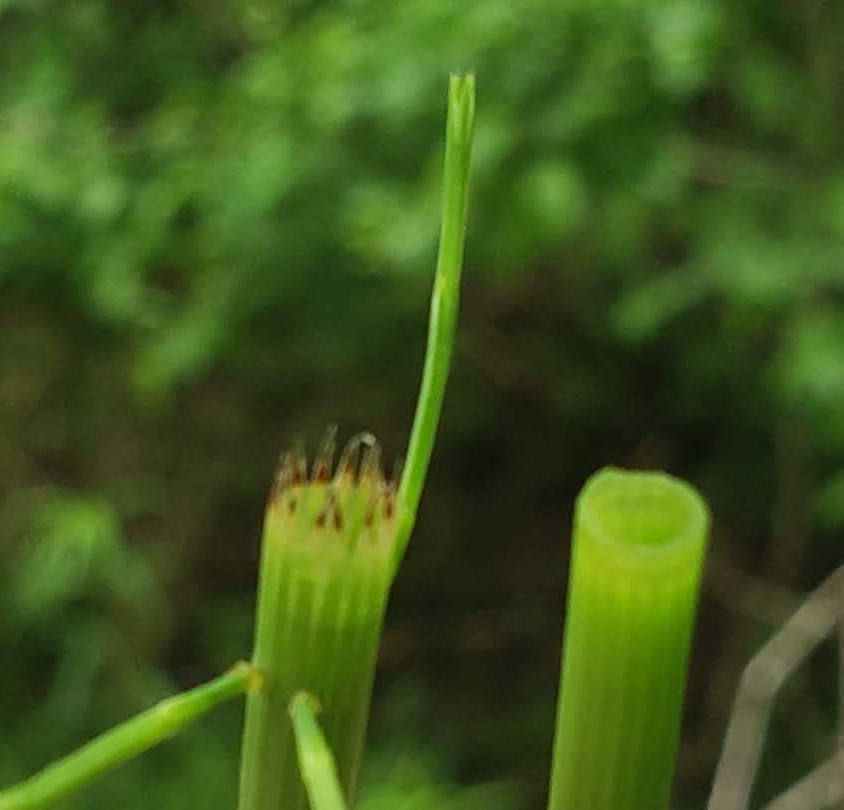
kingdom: Plantae
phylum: Tracheophyta
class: Polypodiopsida
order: Equisetales
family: Equisetaceae
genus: Equisetum
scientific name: Equisetum fluviatile
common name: Water horsetail
